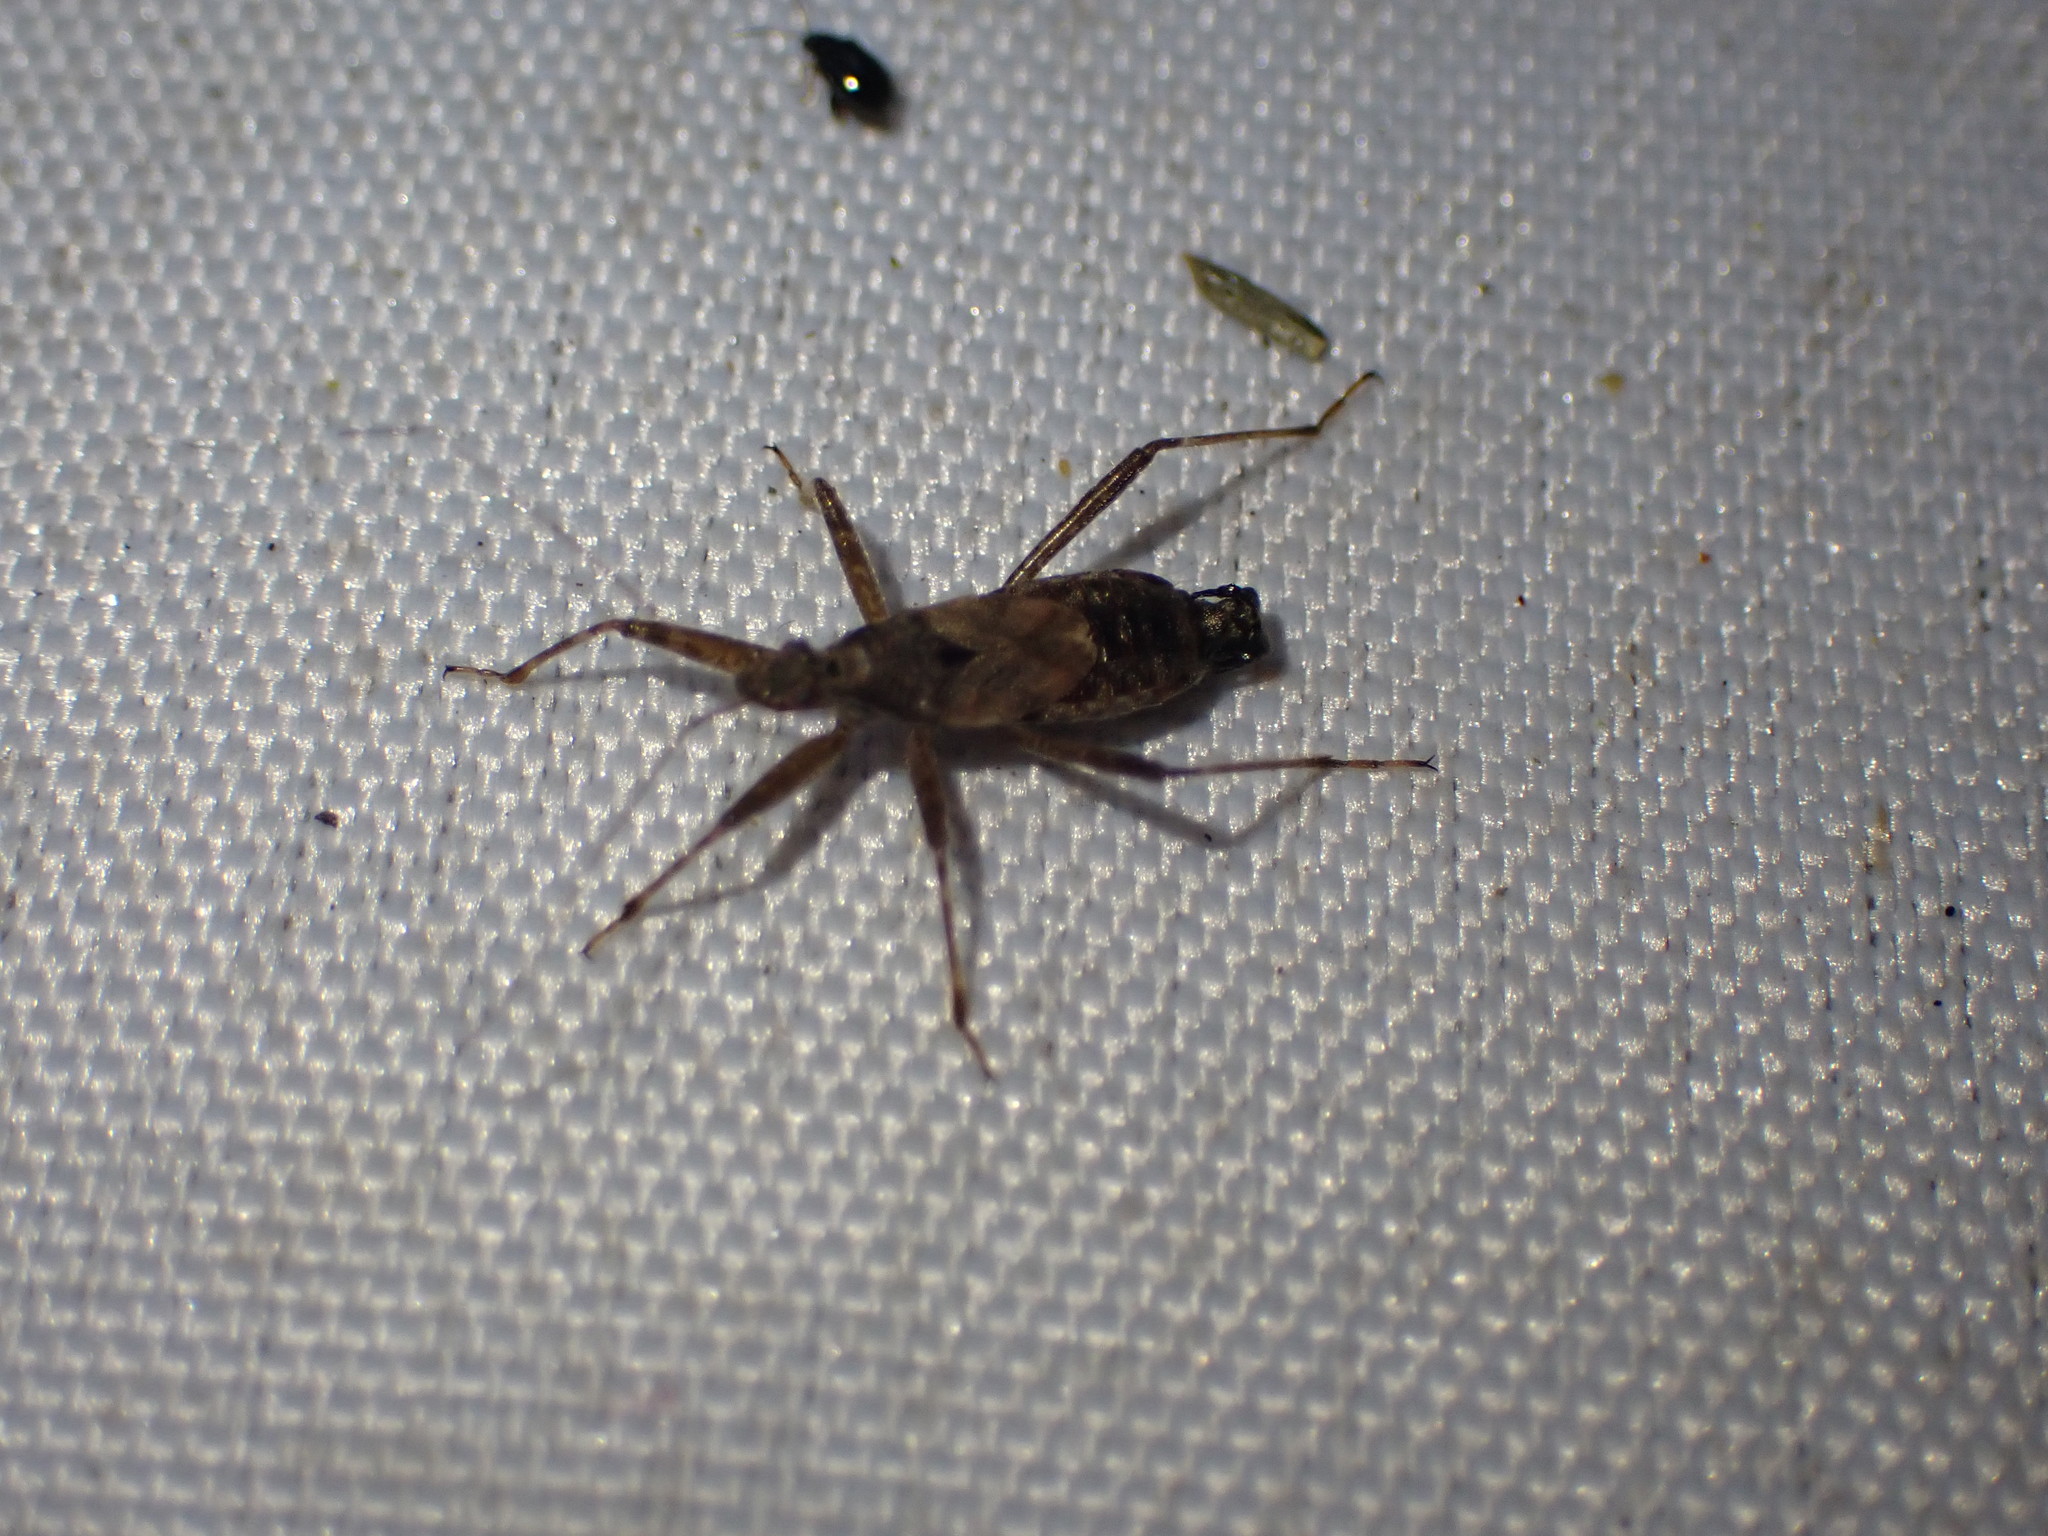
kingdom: Animalia
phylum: Arthropoda
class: Insecta
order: Hemiptera
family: Nabidae
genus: Himacerus
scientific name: Himacerus apterus
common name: Tree damsel bug
